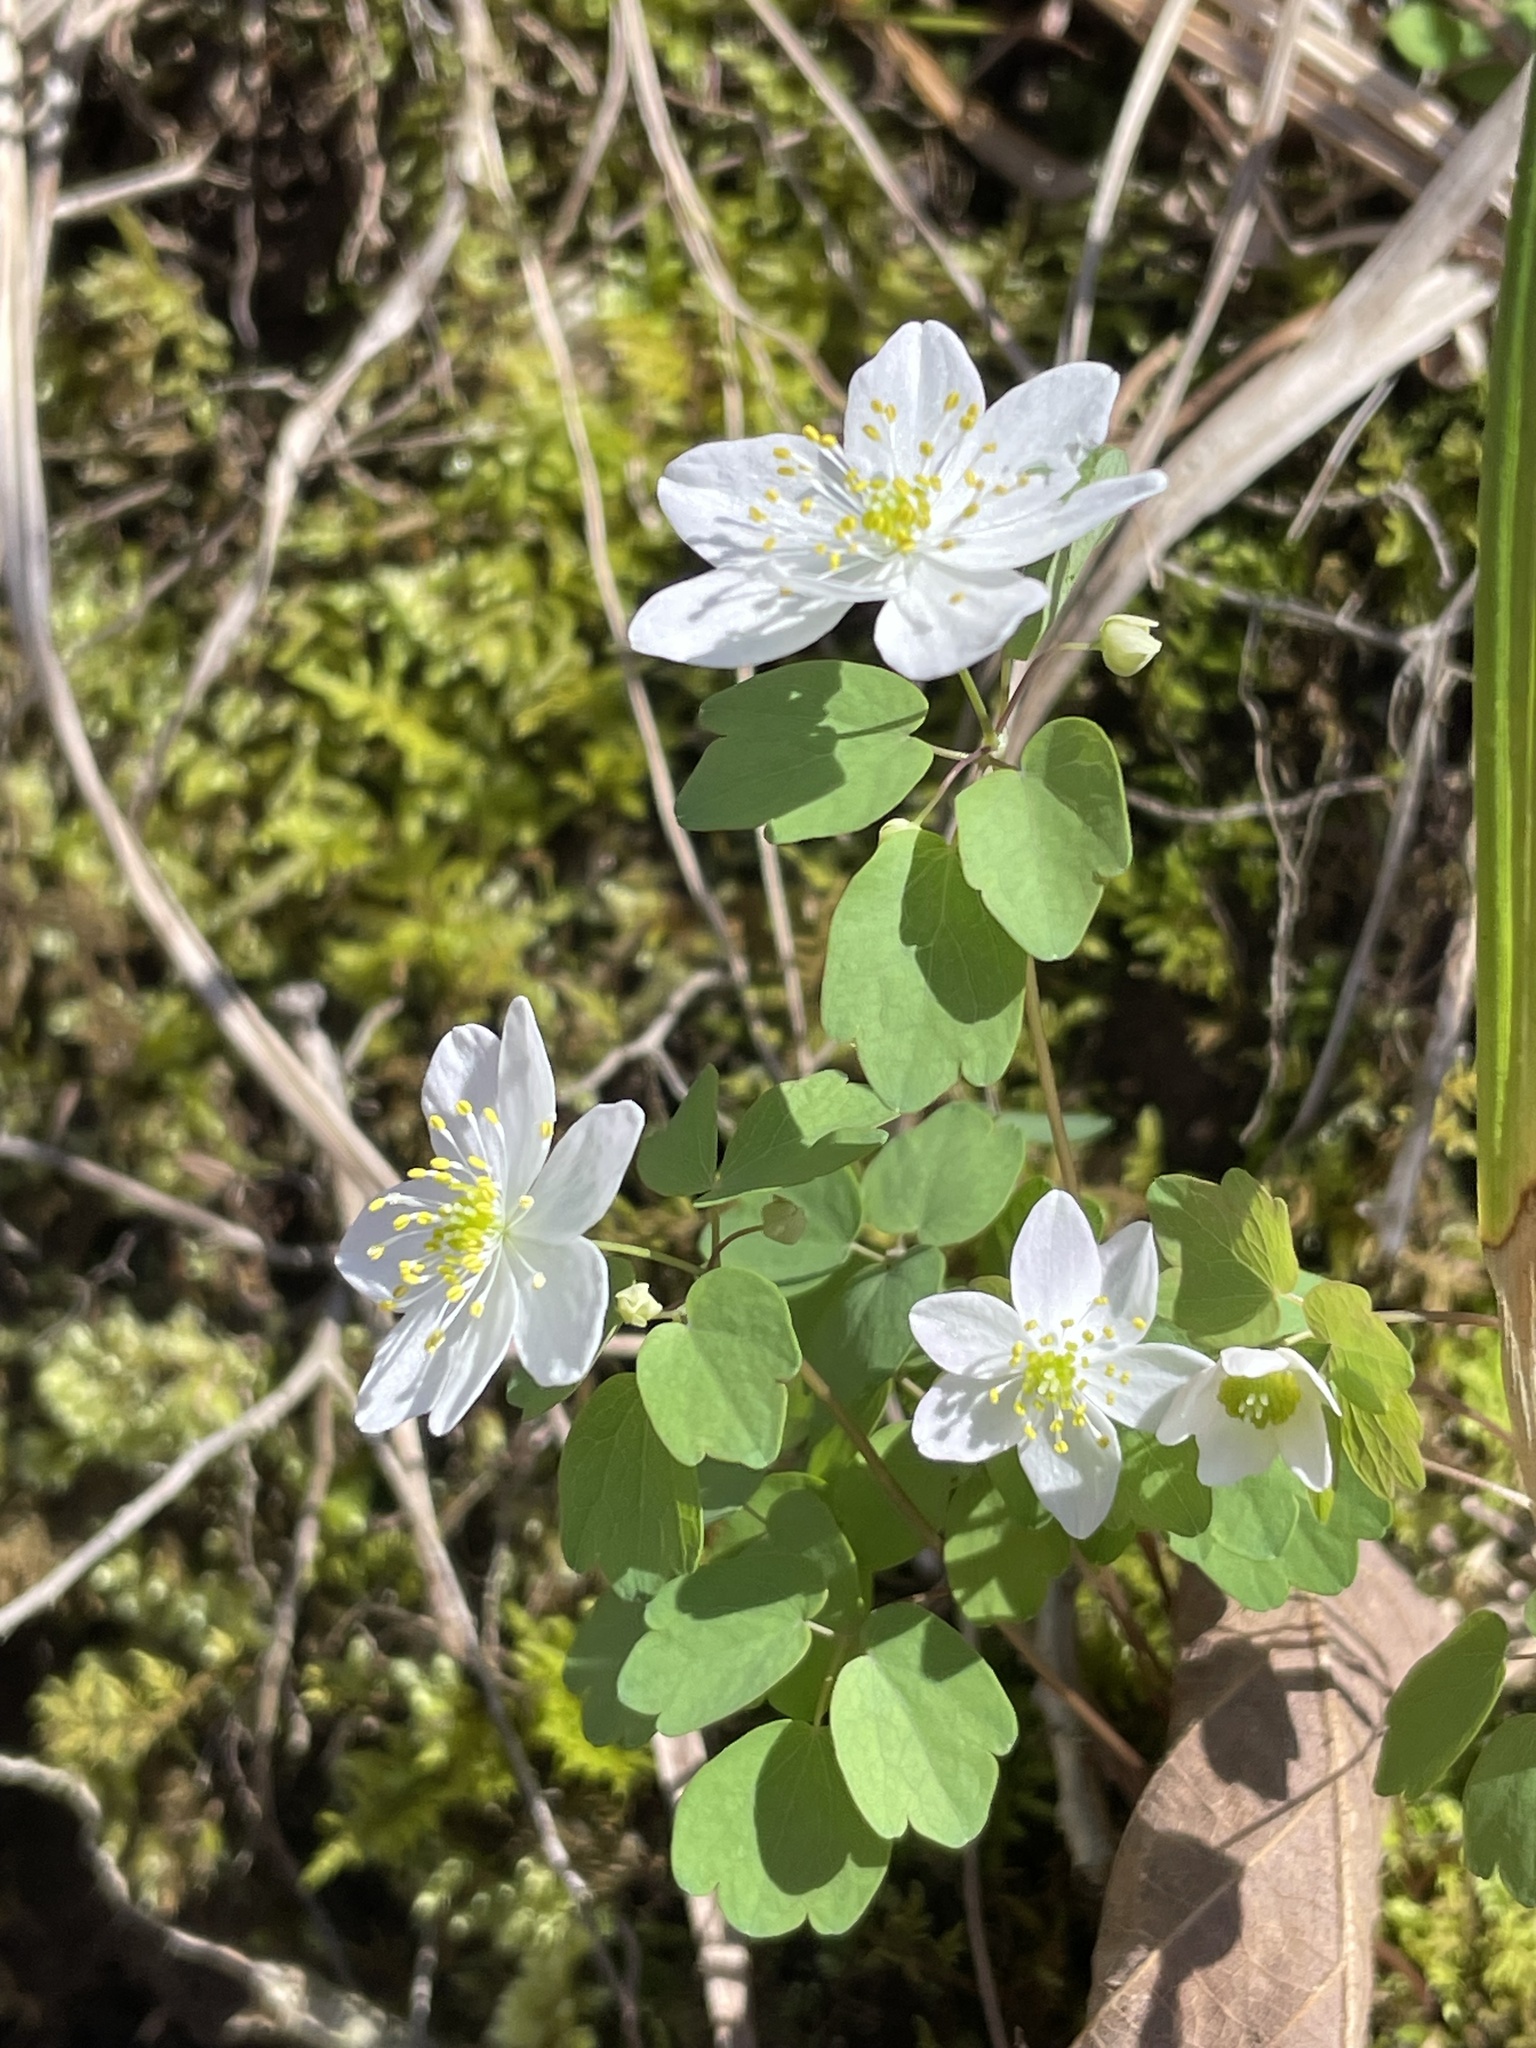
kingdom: Plantae
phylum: Tracheophyta
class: Magnoliopsida
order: Ranunculales
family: Ranunculaceae
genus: Thalictrum
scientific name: Thalictrum thalictroides
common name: Rue-anemone
